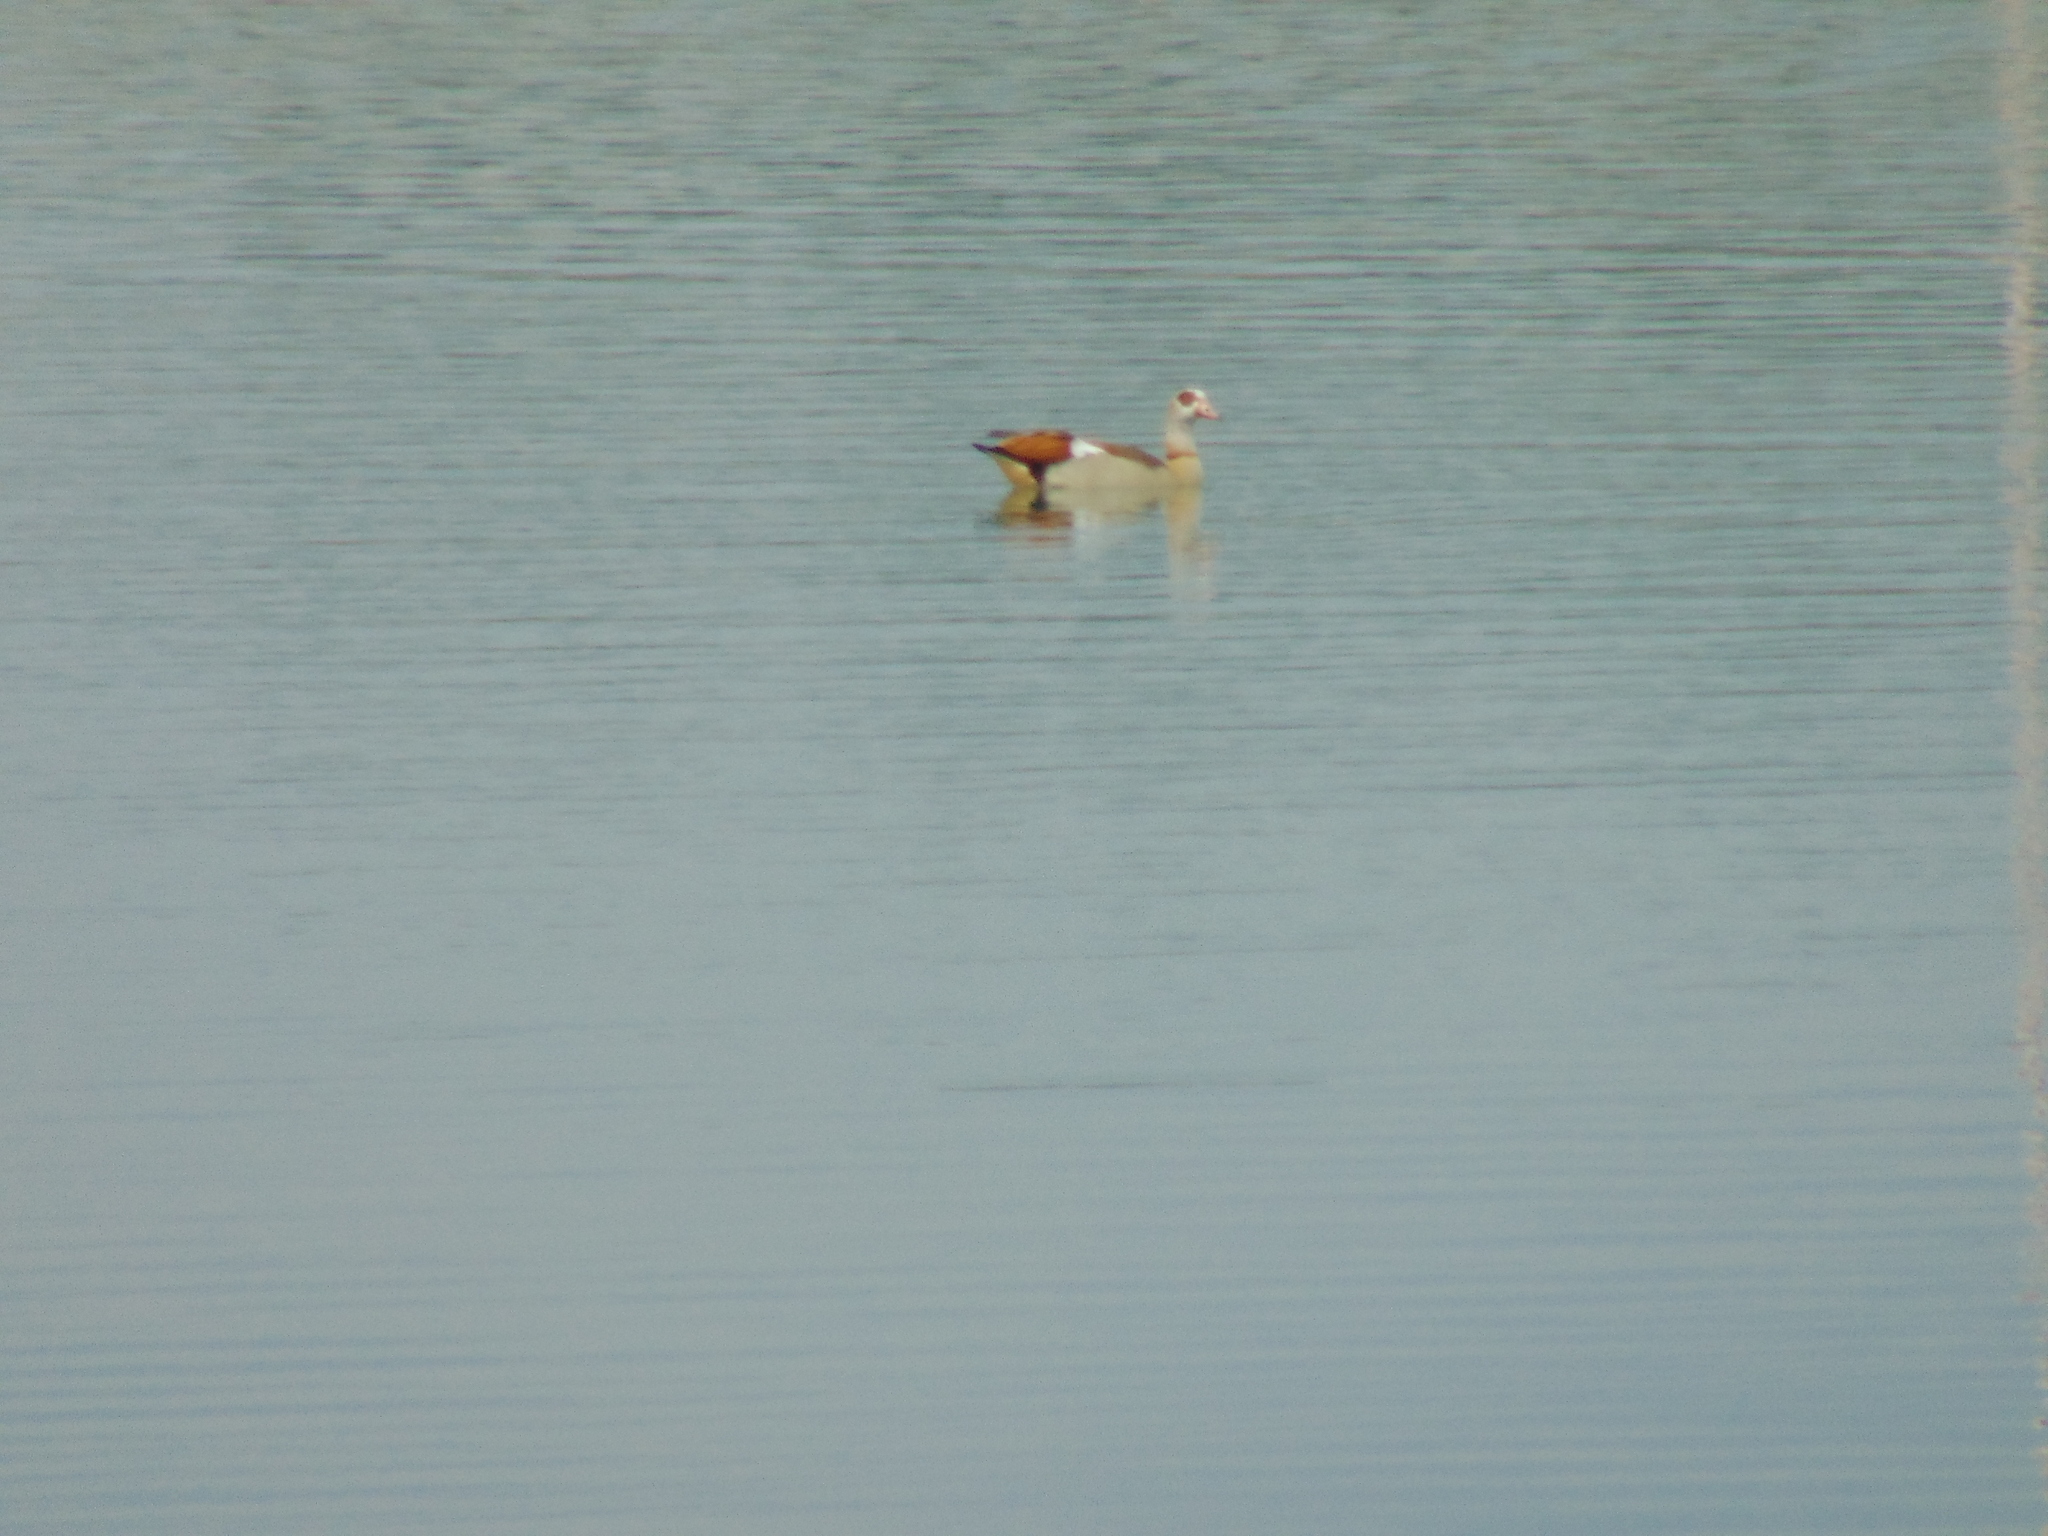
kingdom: Animalia
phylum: Chordata
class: Aves
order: Anseriformes
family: Anatidae
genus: Alopochen
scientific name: Alopochen aegyptiaca
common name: Egyptian goose
